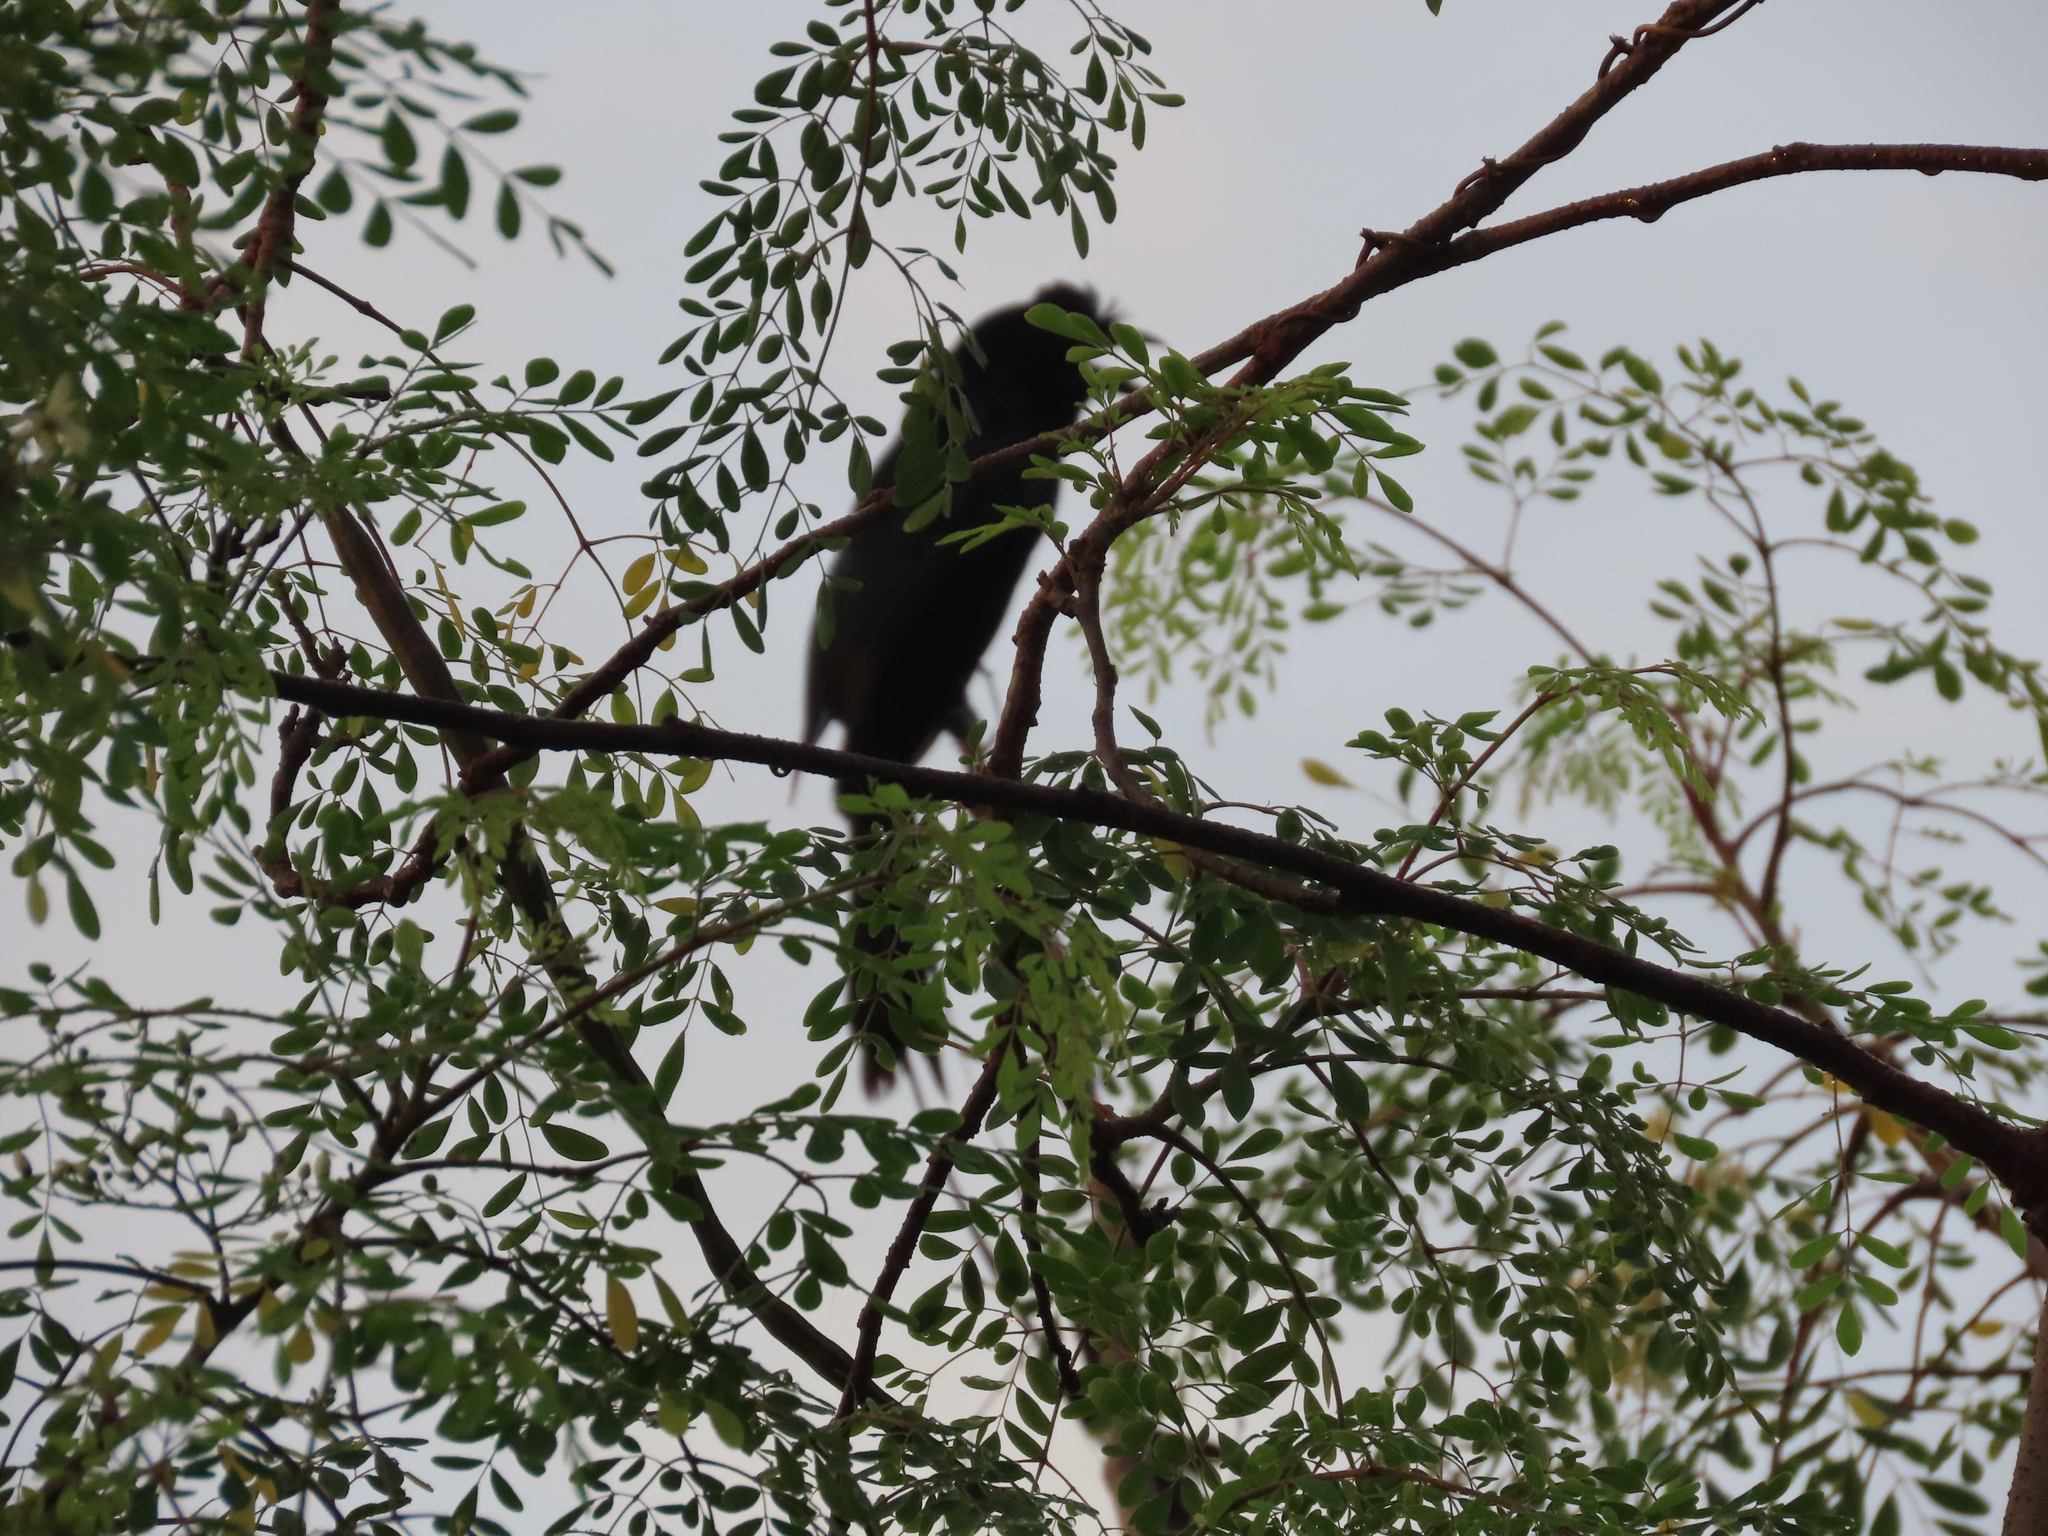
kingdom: Animalia
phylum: Chordata
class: Aves
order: Passeriformes
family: Dicruridae
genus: Dicrurus
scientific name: Dicrurus paradiseus
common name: Greater racket-tailed drongo
